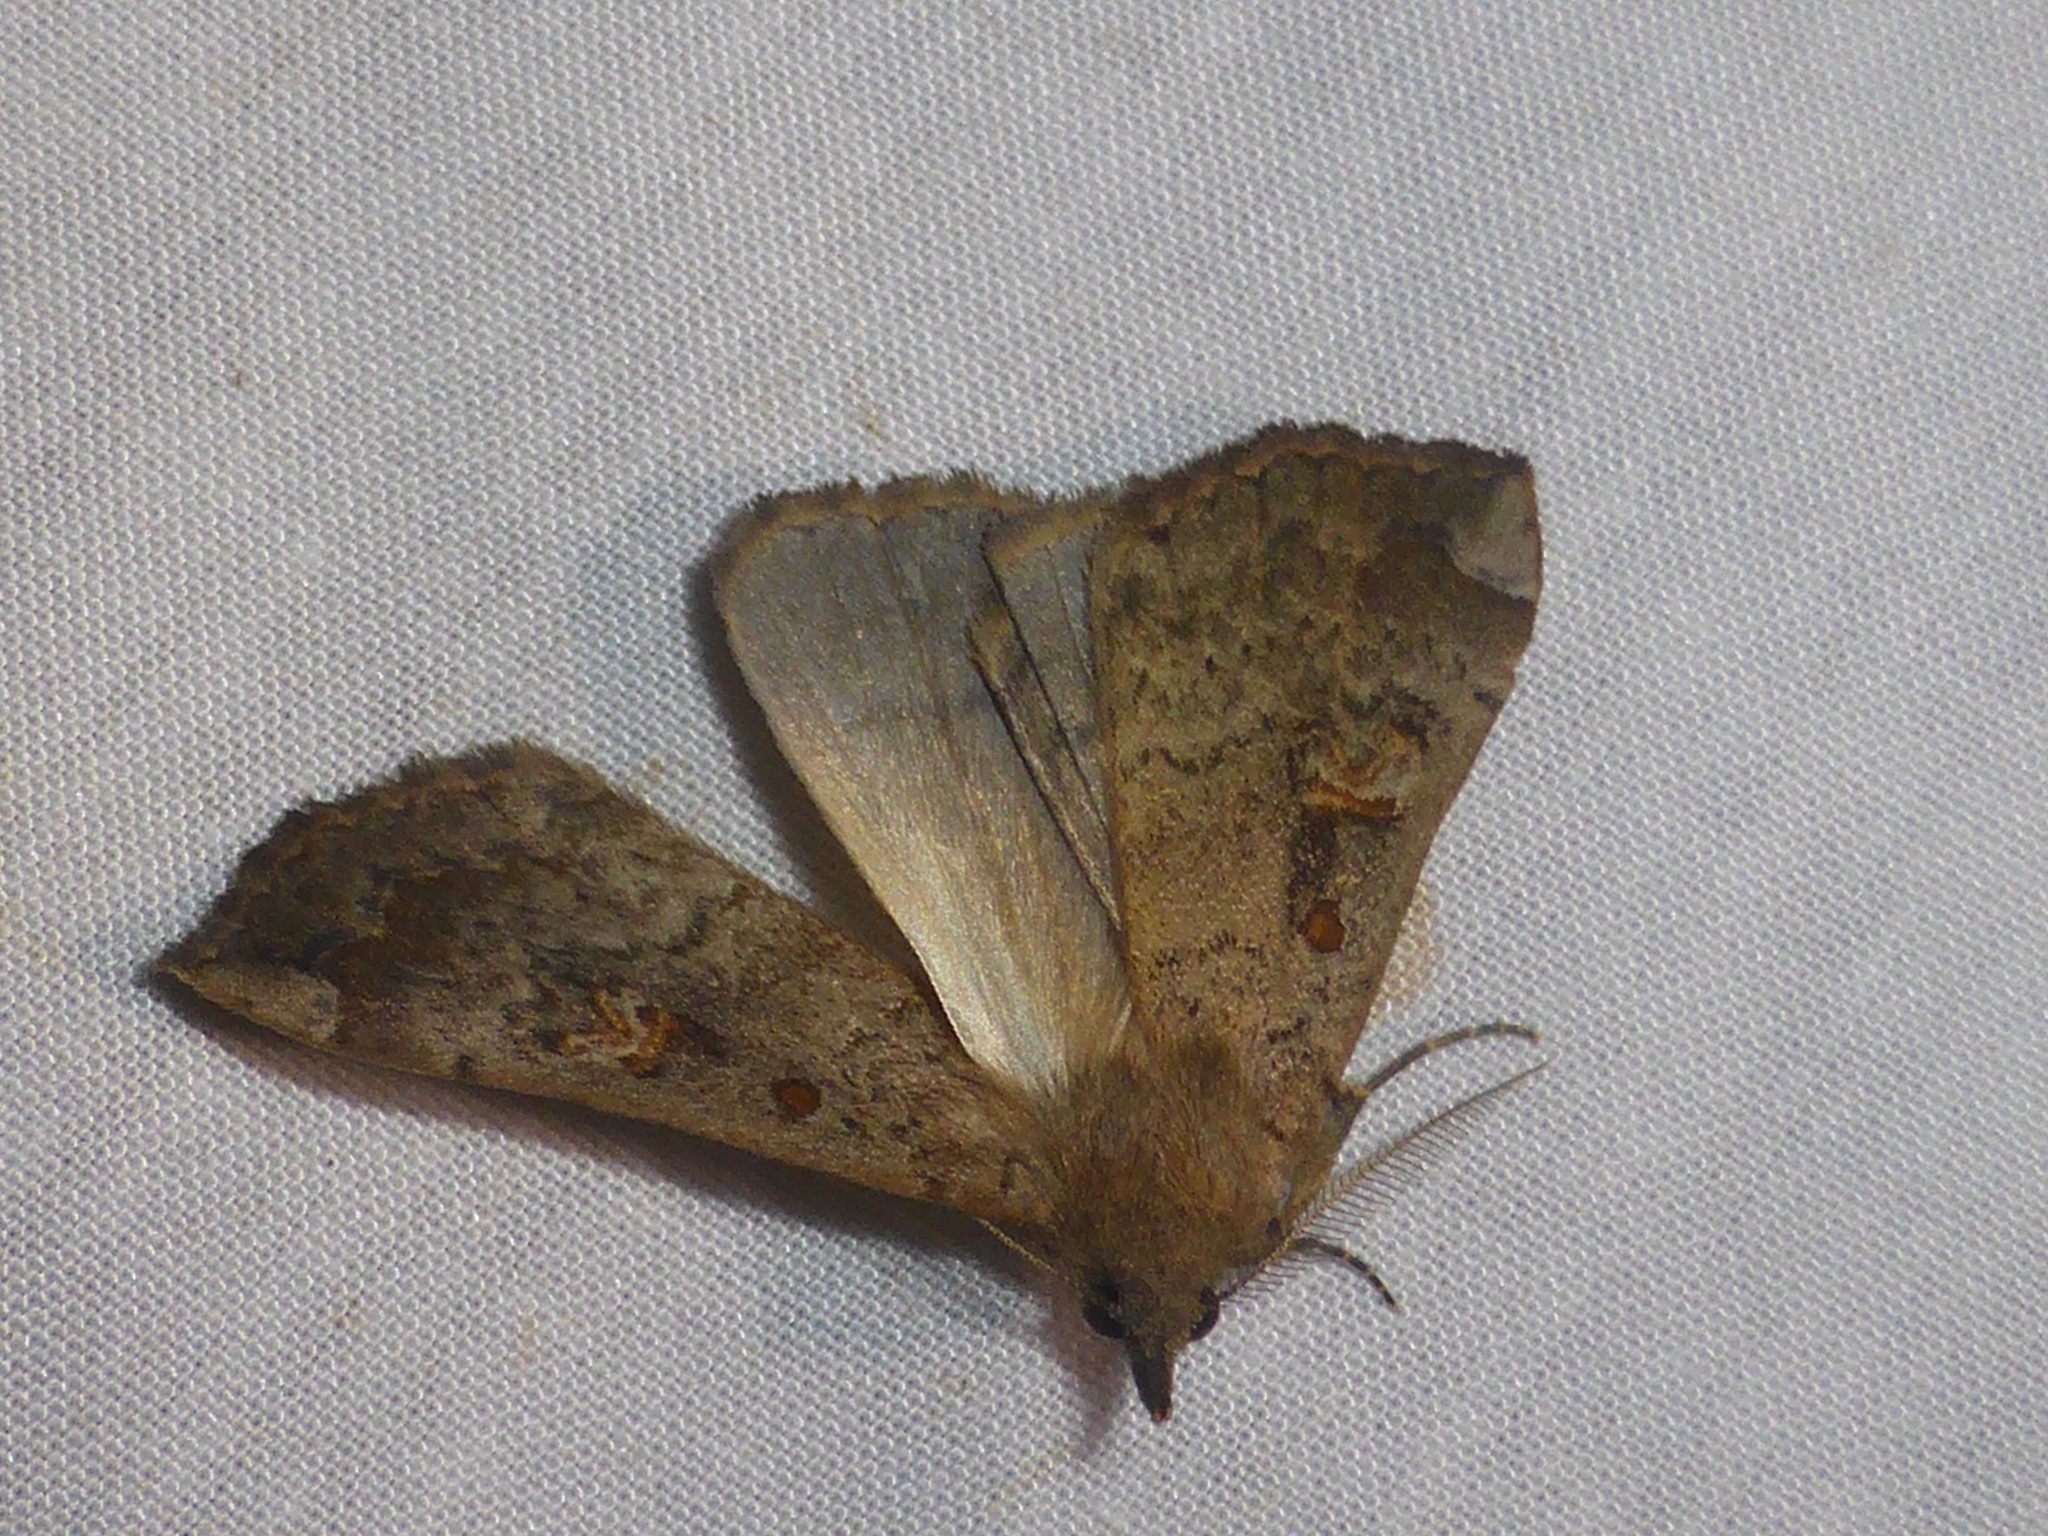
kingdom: Animalia
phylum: Arthropoda
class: Insecta
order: Lepidoptera
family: Erebidae
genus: Rhapsa
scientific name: Rhapsa scotosialis
